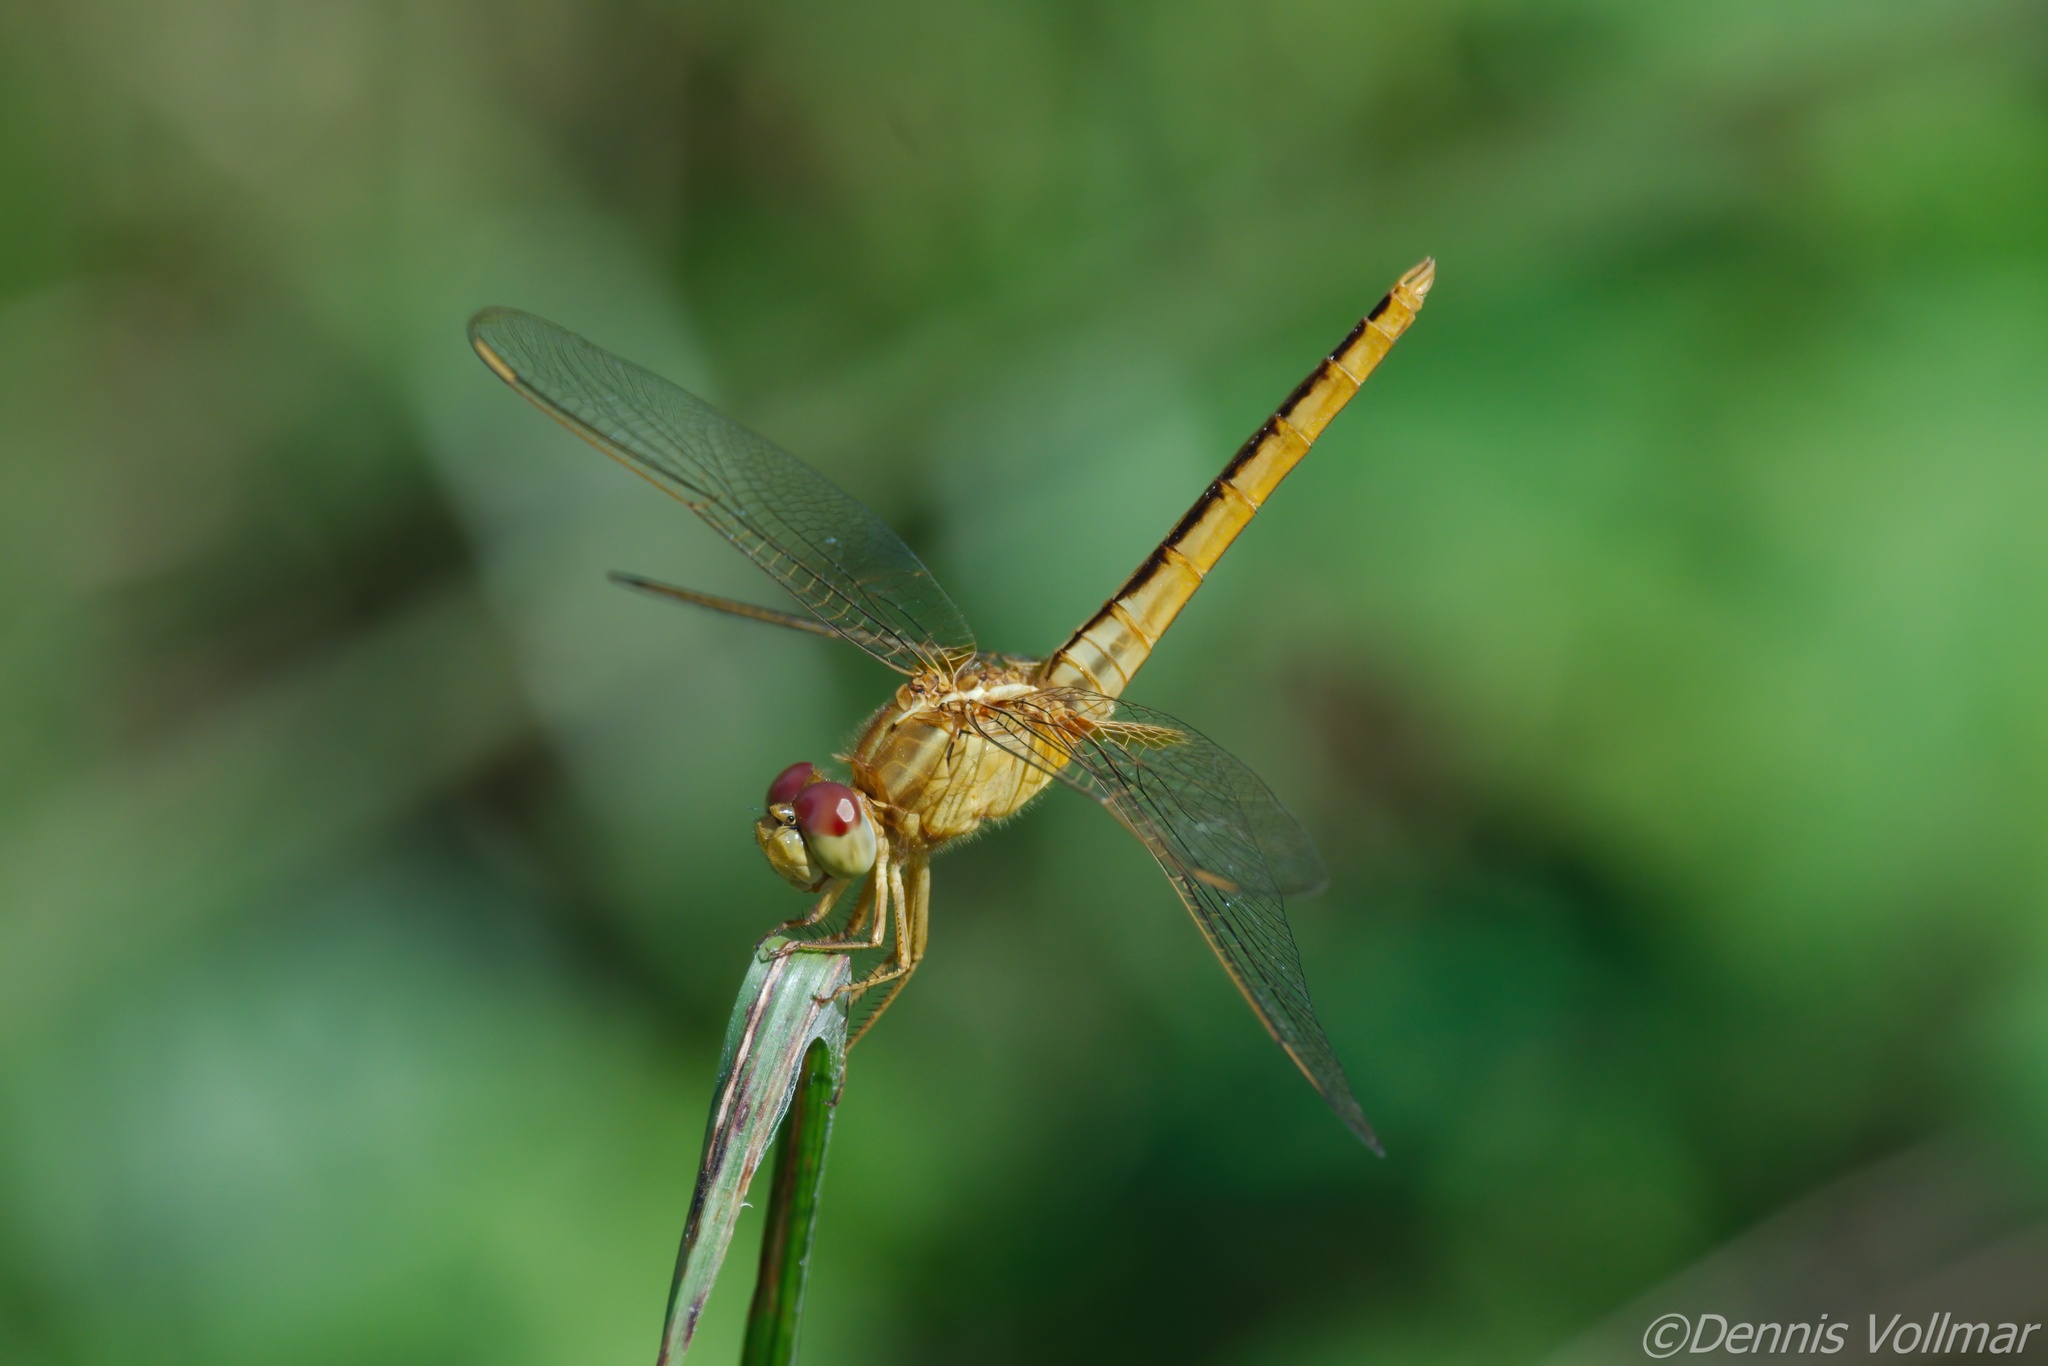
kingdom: Animalia
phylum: Arthropoda
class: Insecta
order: Odonata
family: Libellulidae
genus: Crocothemis
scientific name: Crocothemis servilia
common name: Scarlet skimmer
